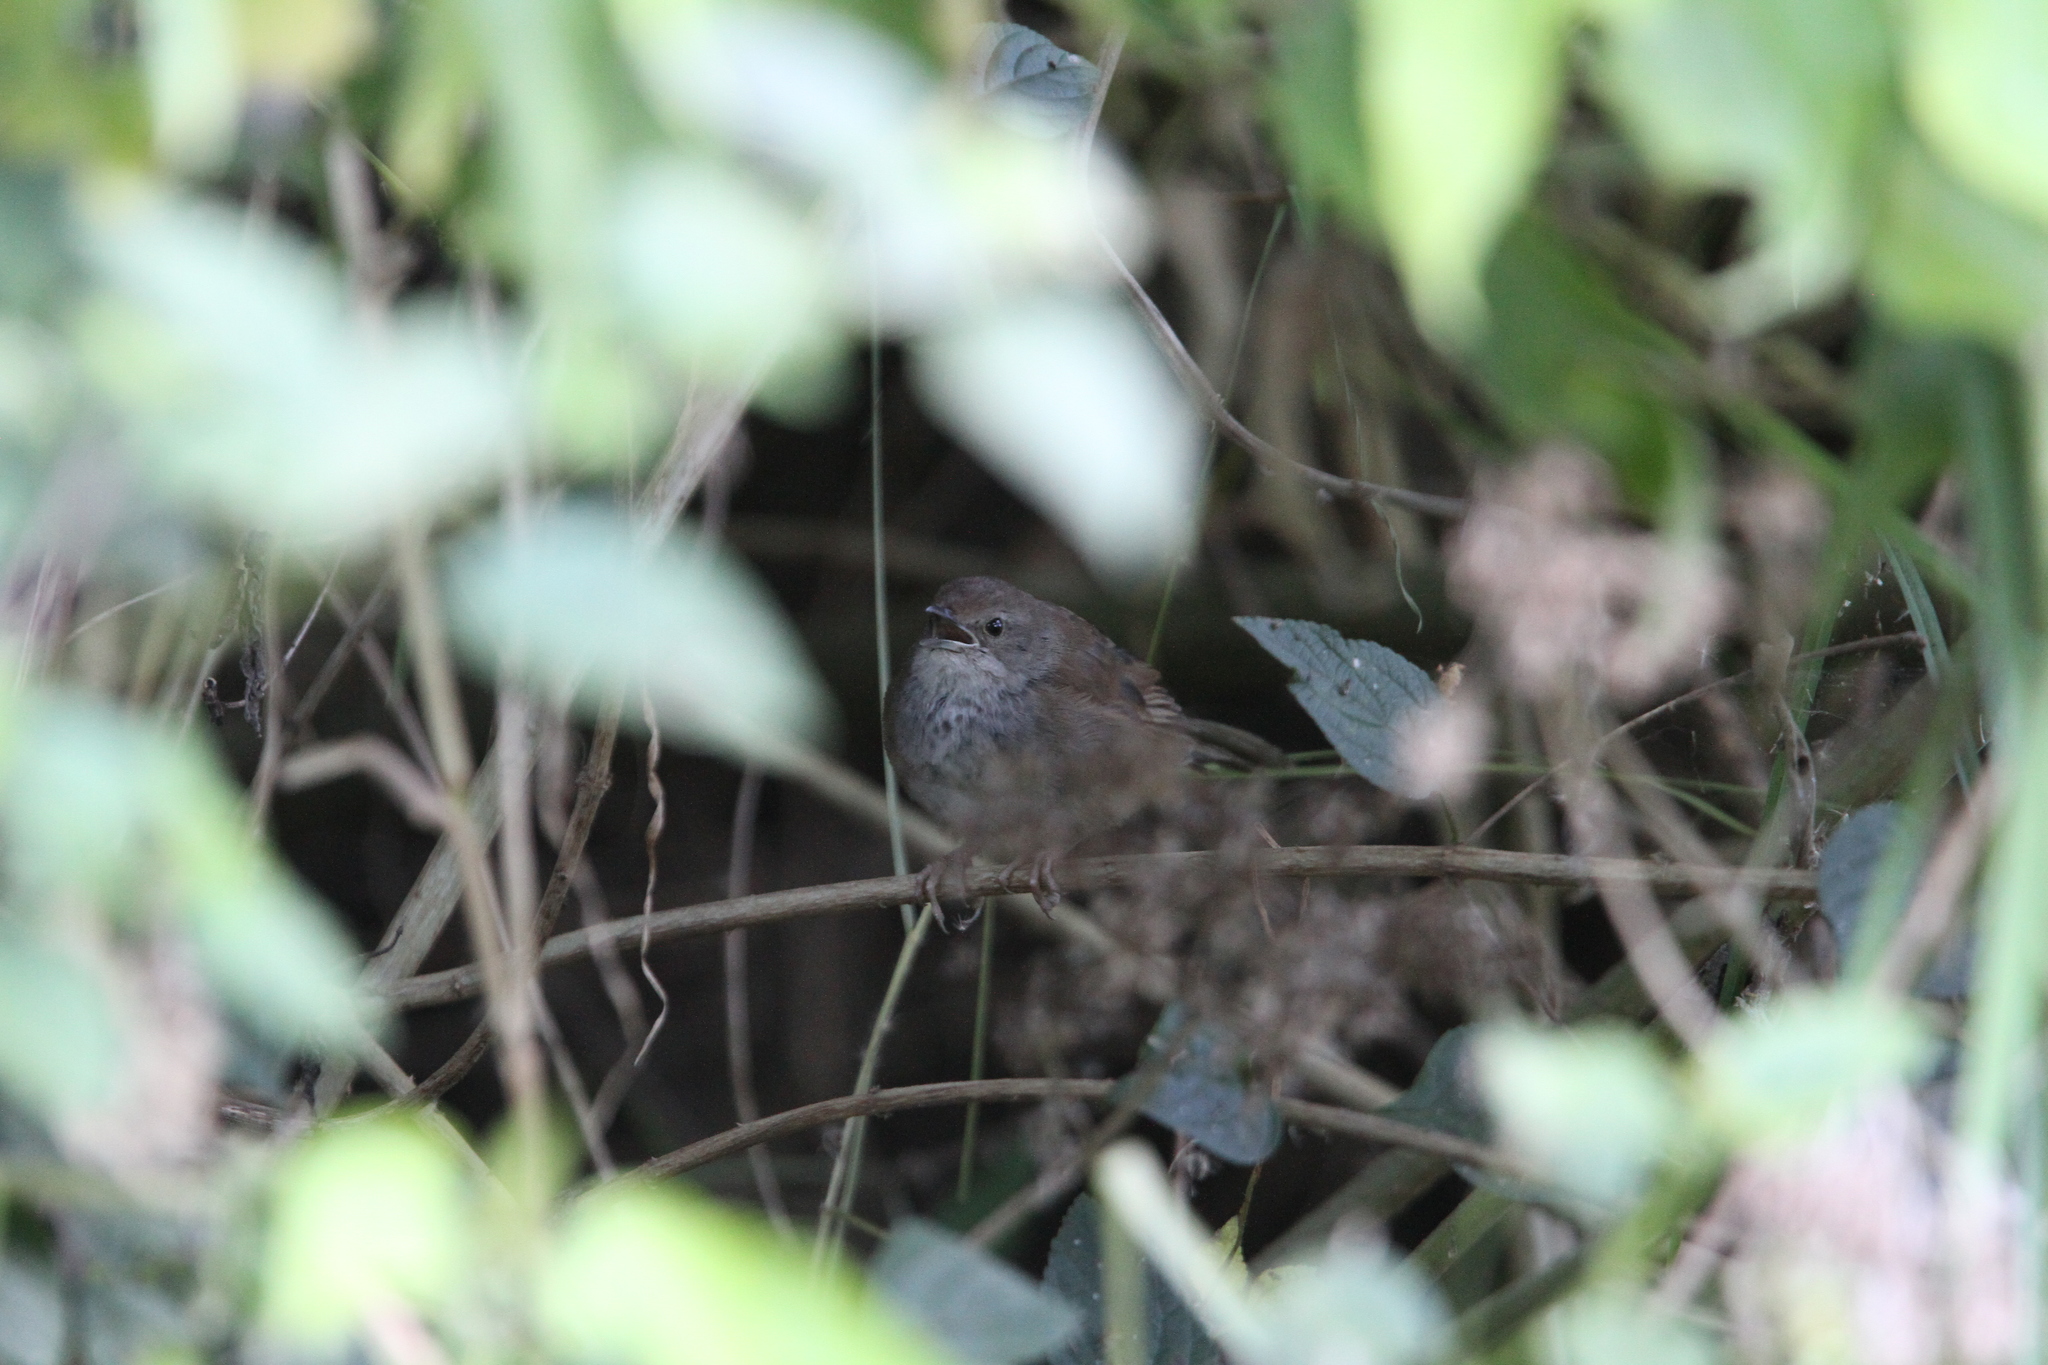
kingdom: Animalia
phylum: Chordata
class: Aves
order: Passeriformes
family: Locustellidae
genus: Locustella
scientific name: Locustella montis
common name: Javan bush warbler
